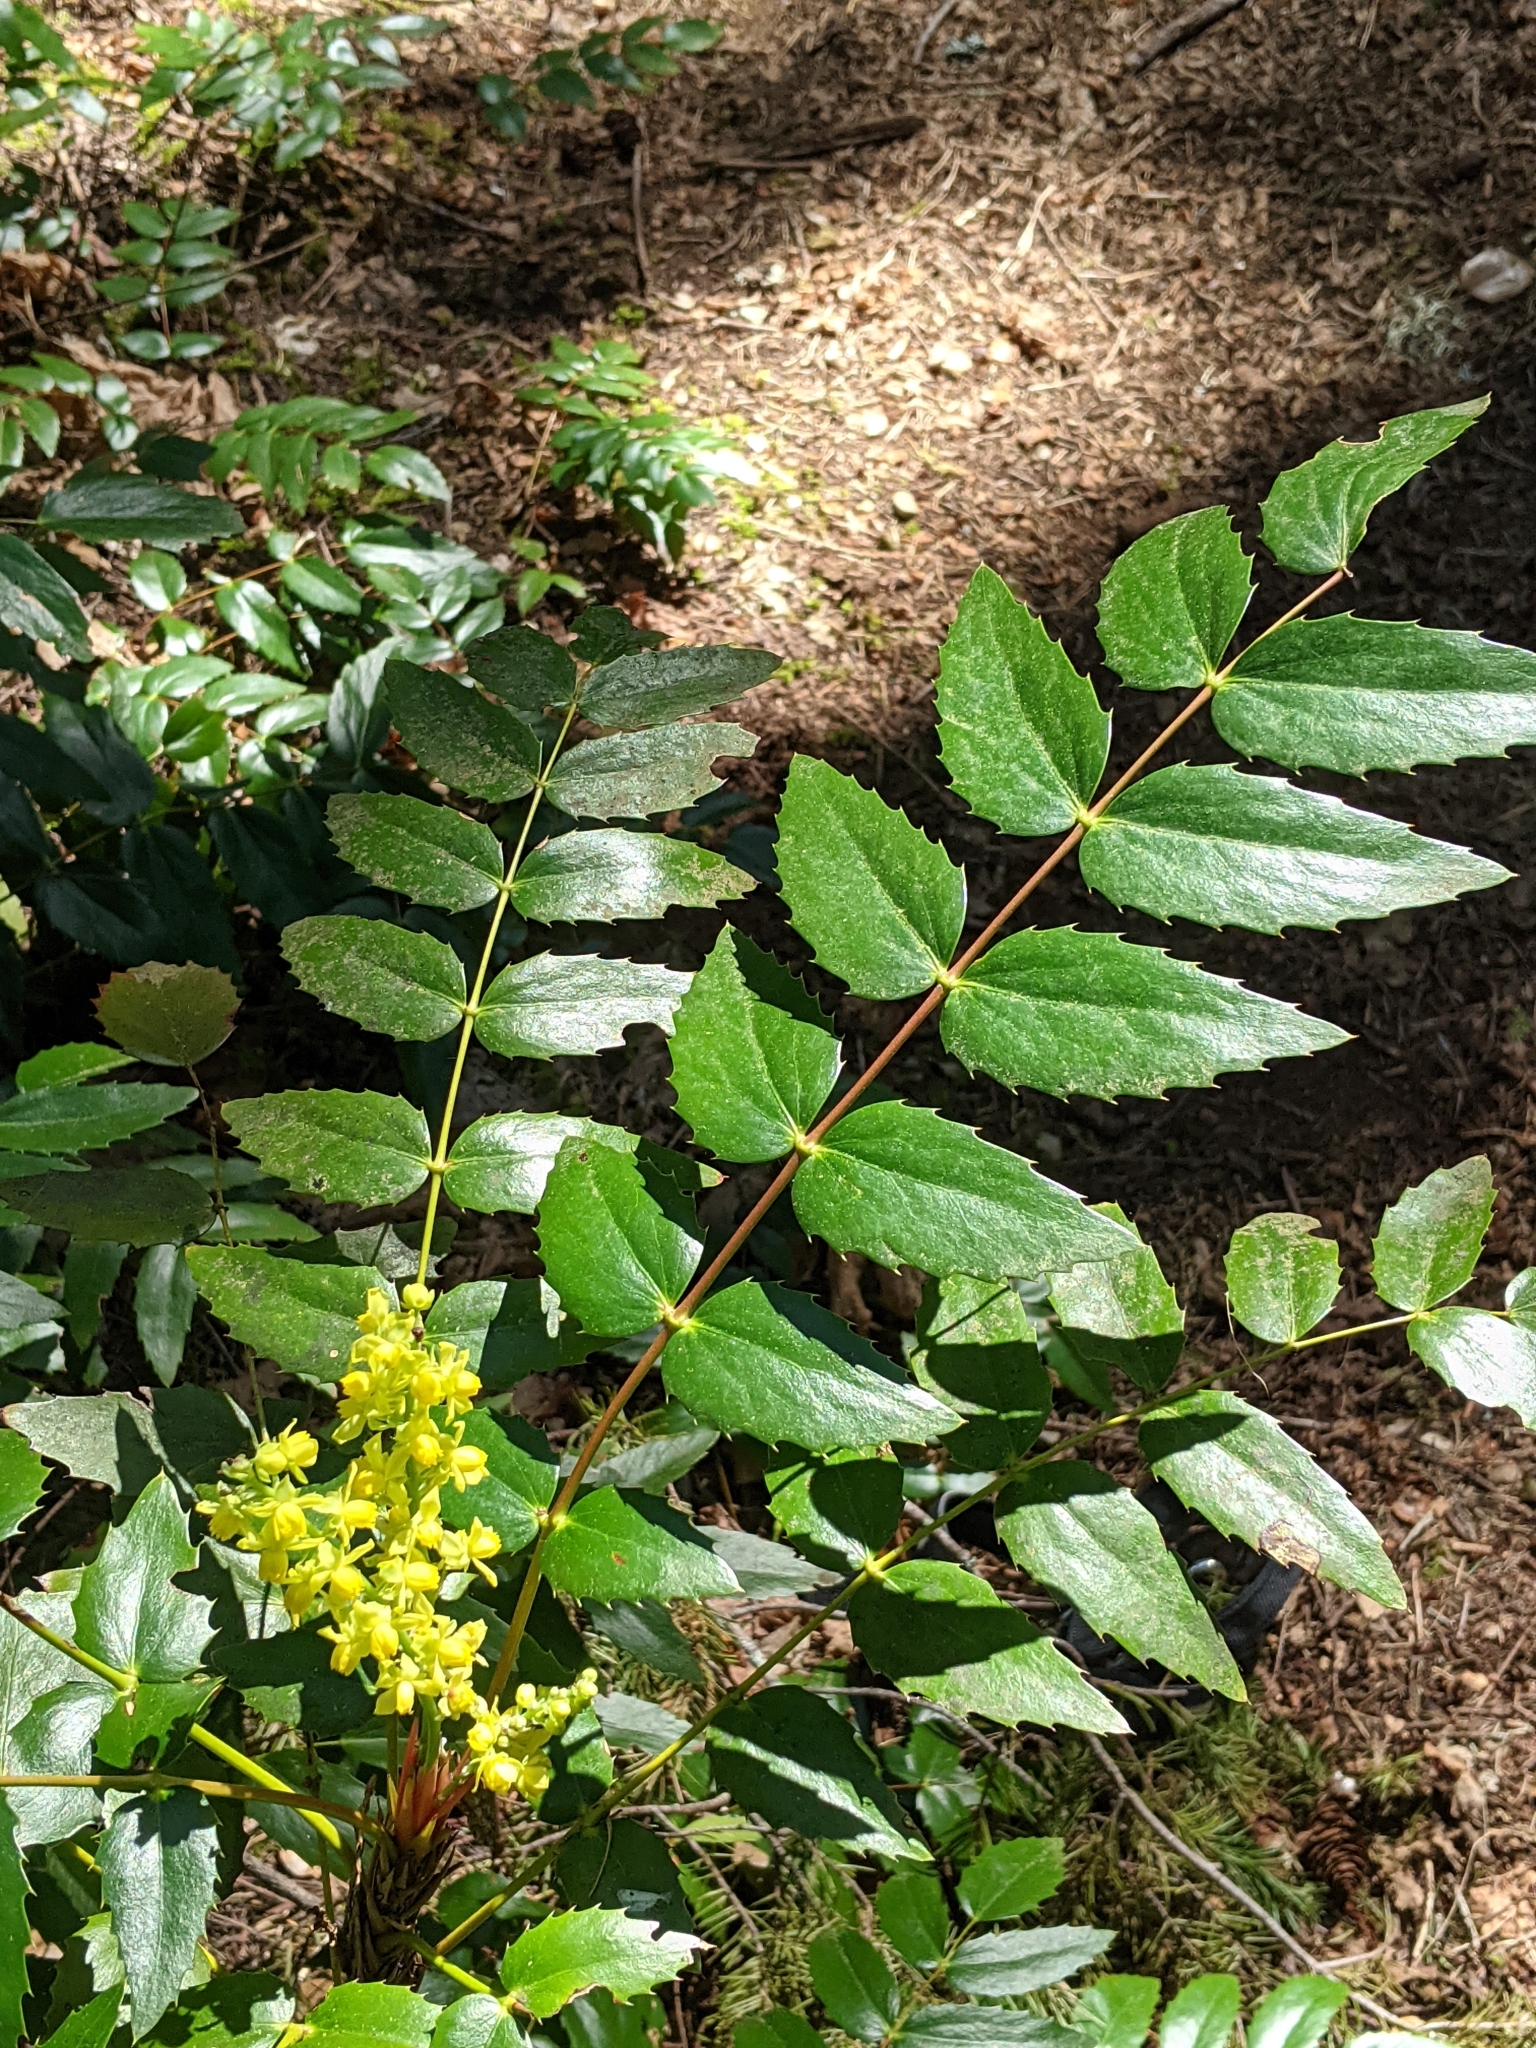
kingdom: Plantae
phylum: Tracheophyta
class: Magnoliopsida
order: Ranunculales
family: Berberidaceae
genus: Mahonia
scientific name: Mahonia nervosa
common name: Cascade oregon-grape
